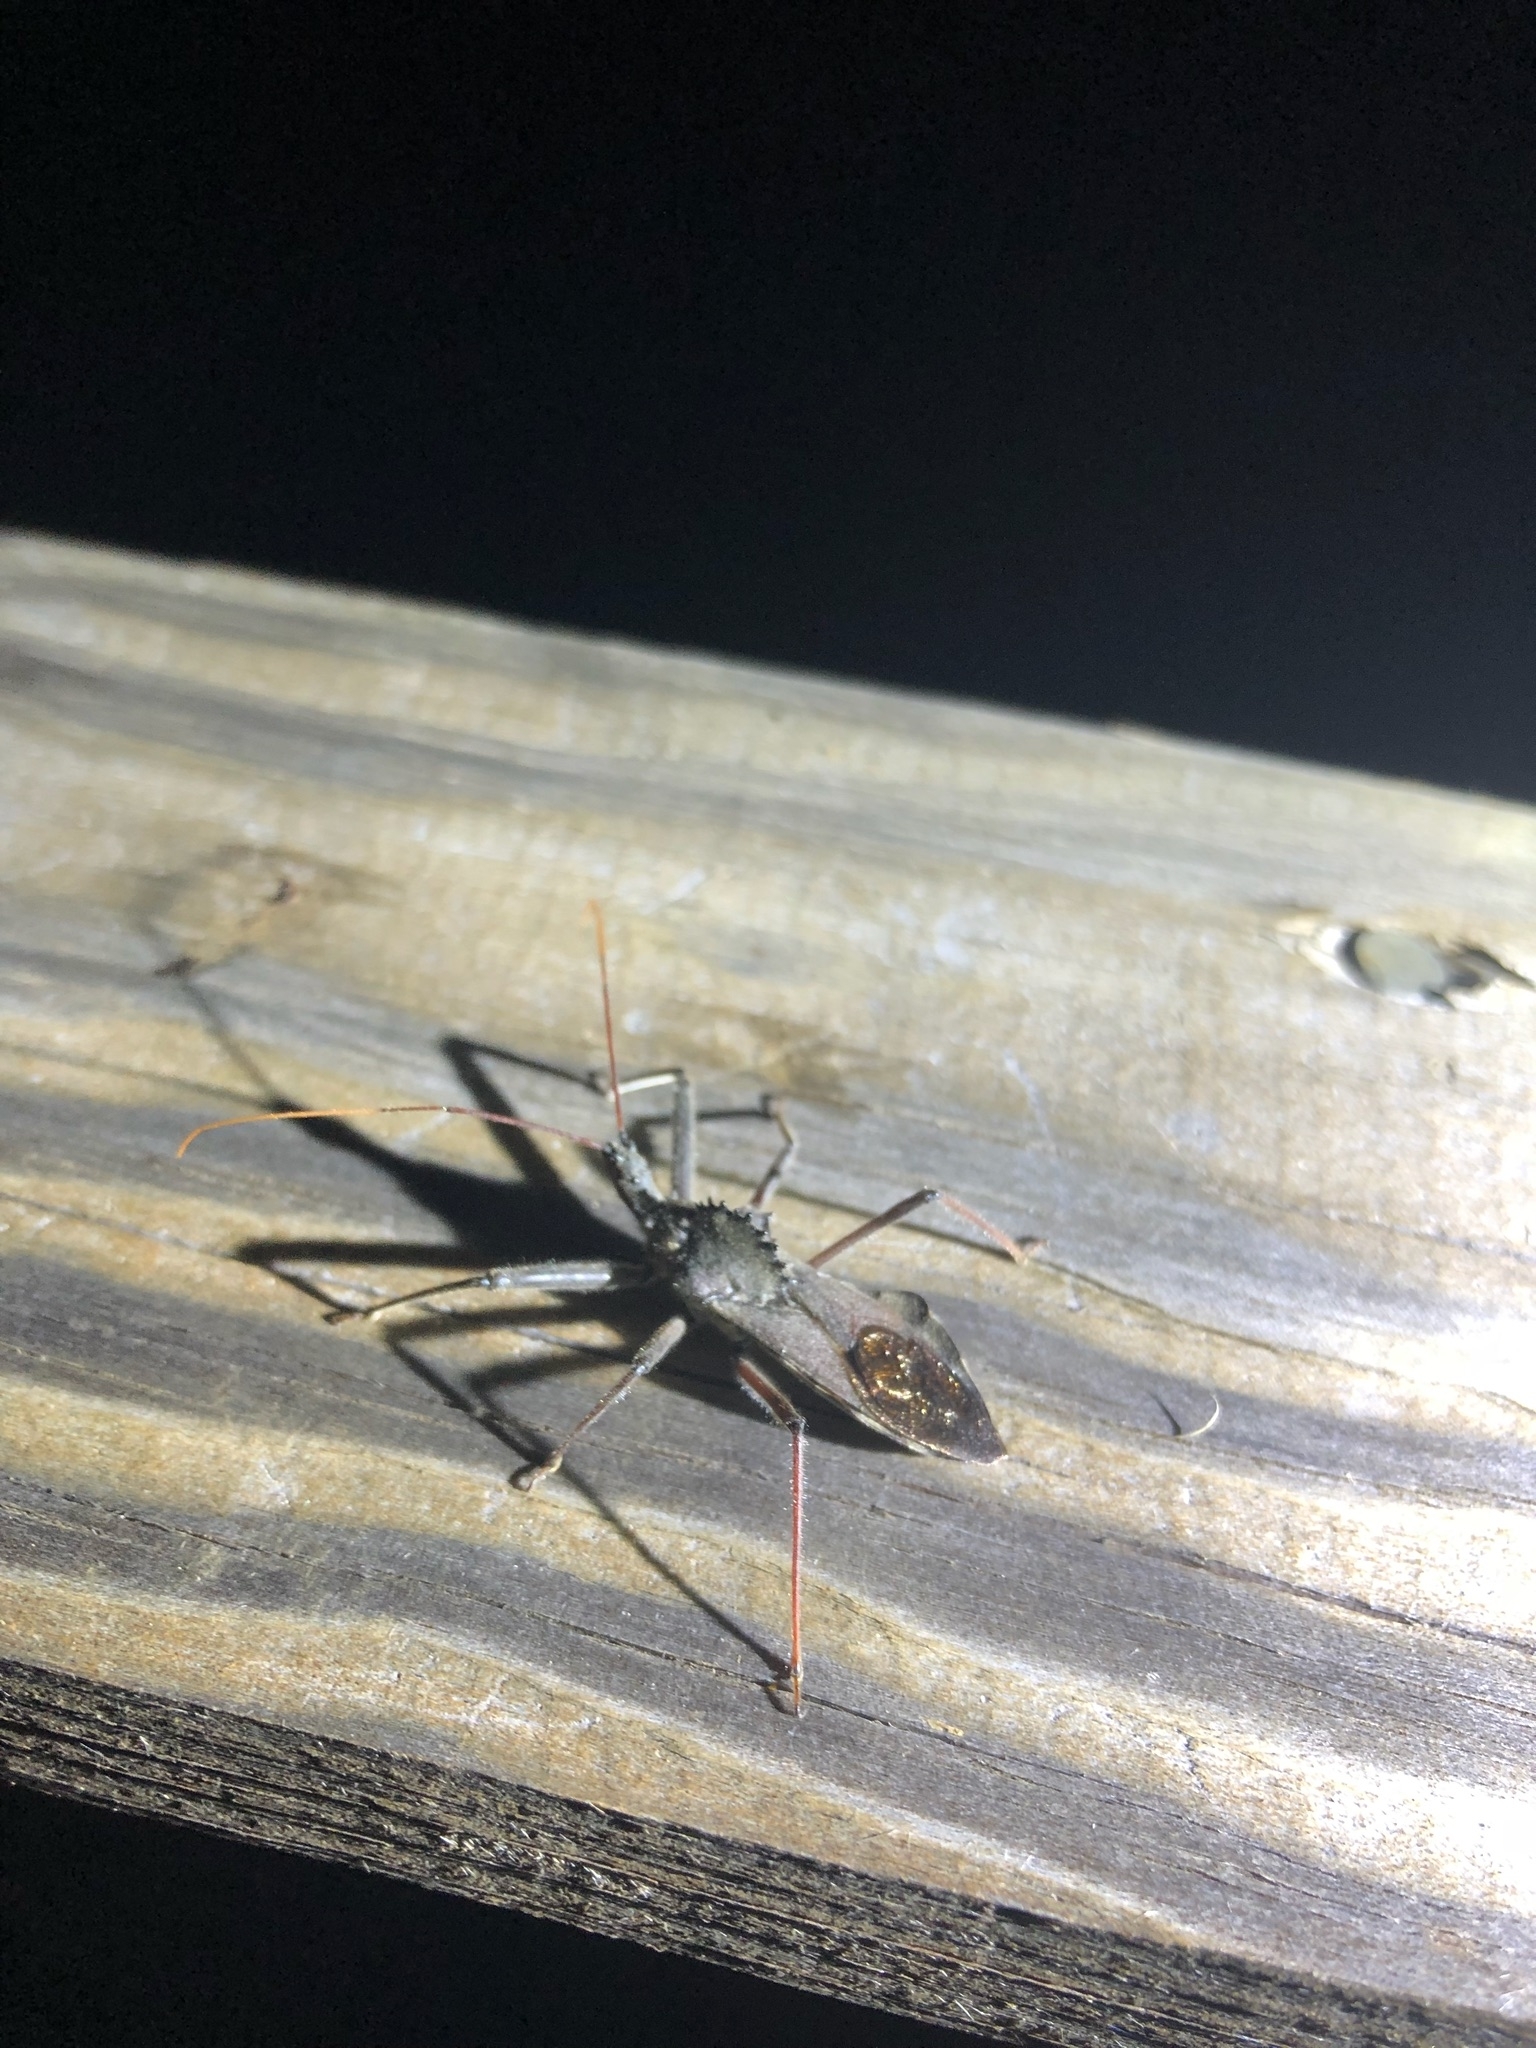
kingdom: Animalia
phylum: Arthropoda
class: Insecta
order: Hemiptera
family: Reduviidae
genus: Arilus
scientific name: Arilus cristatus
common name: North american wheel bug
